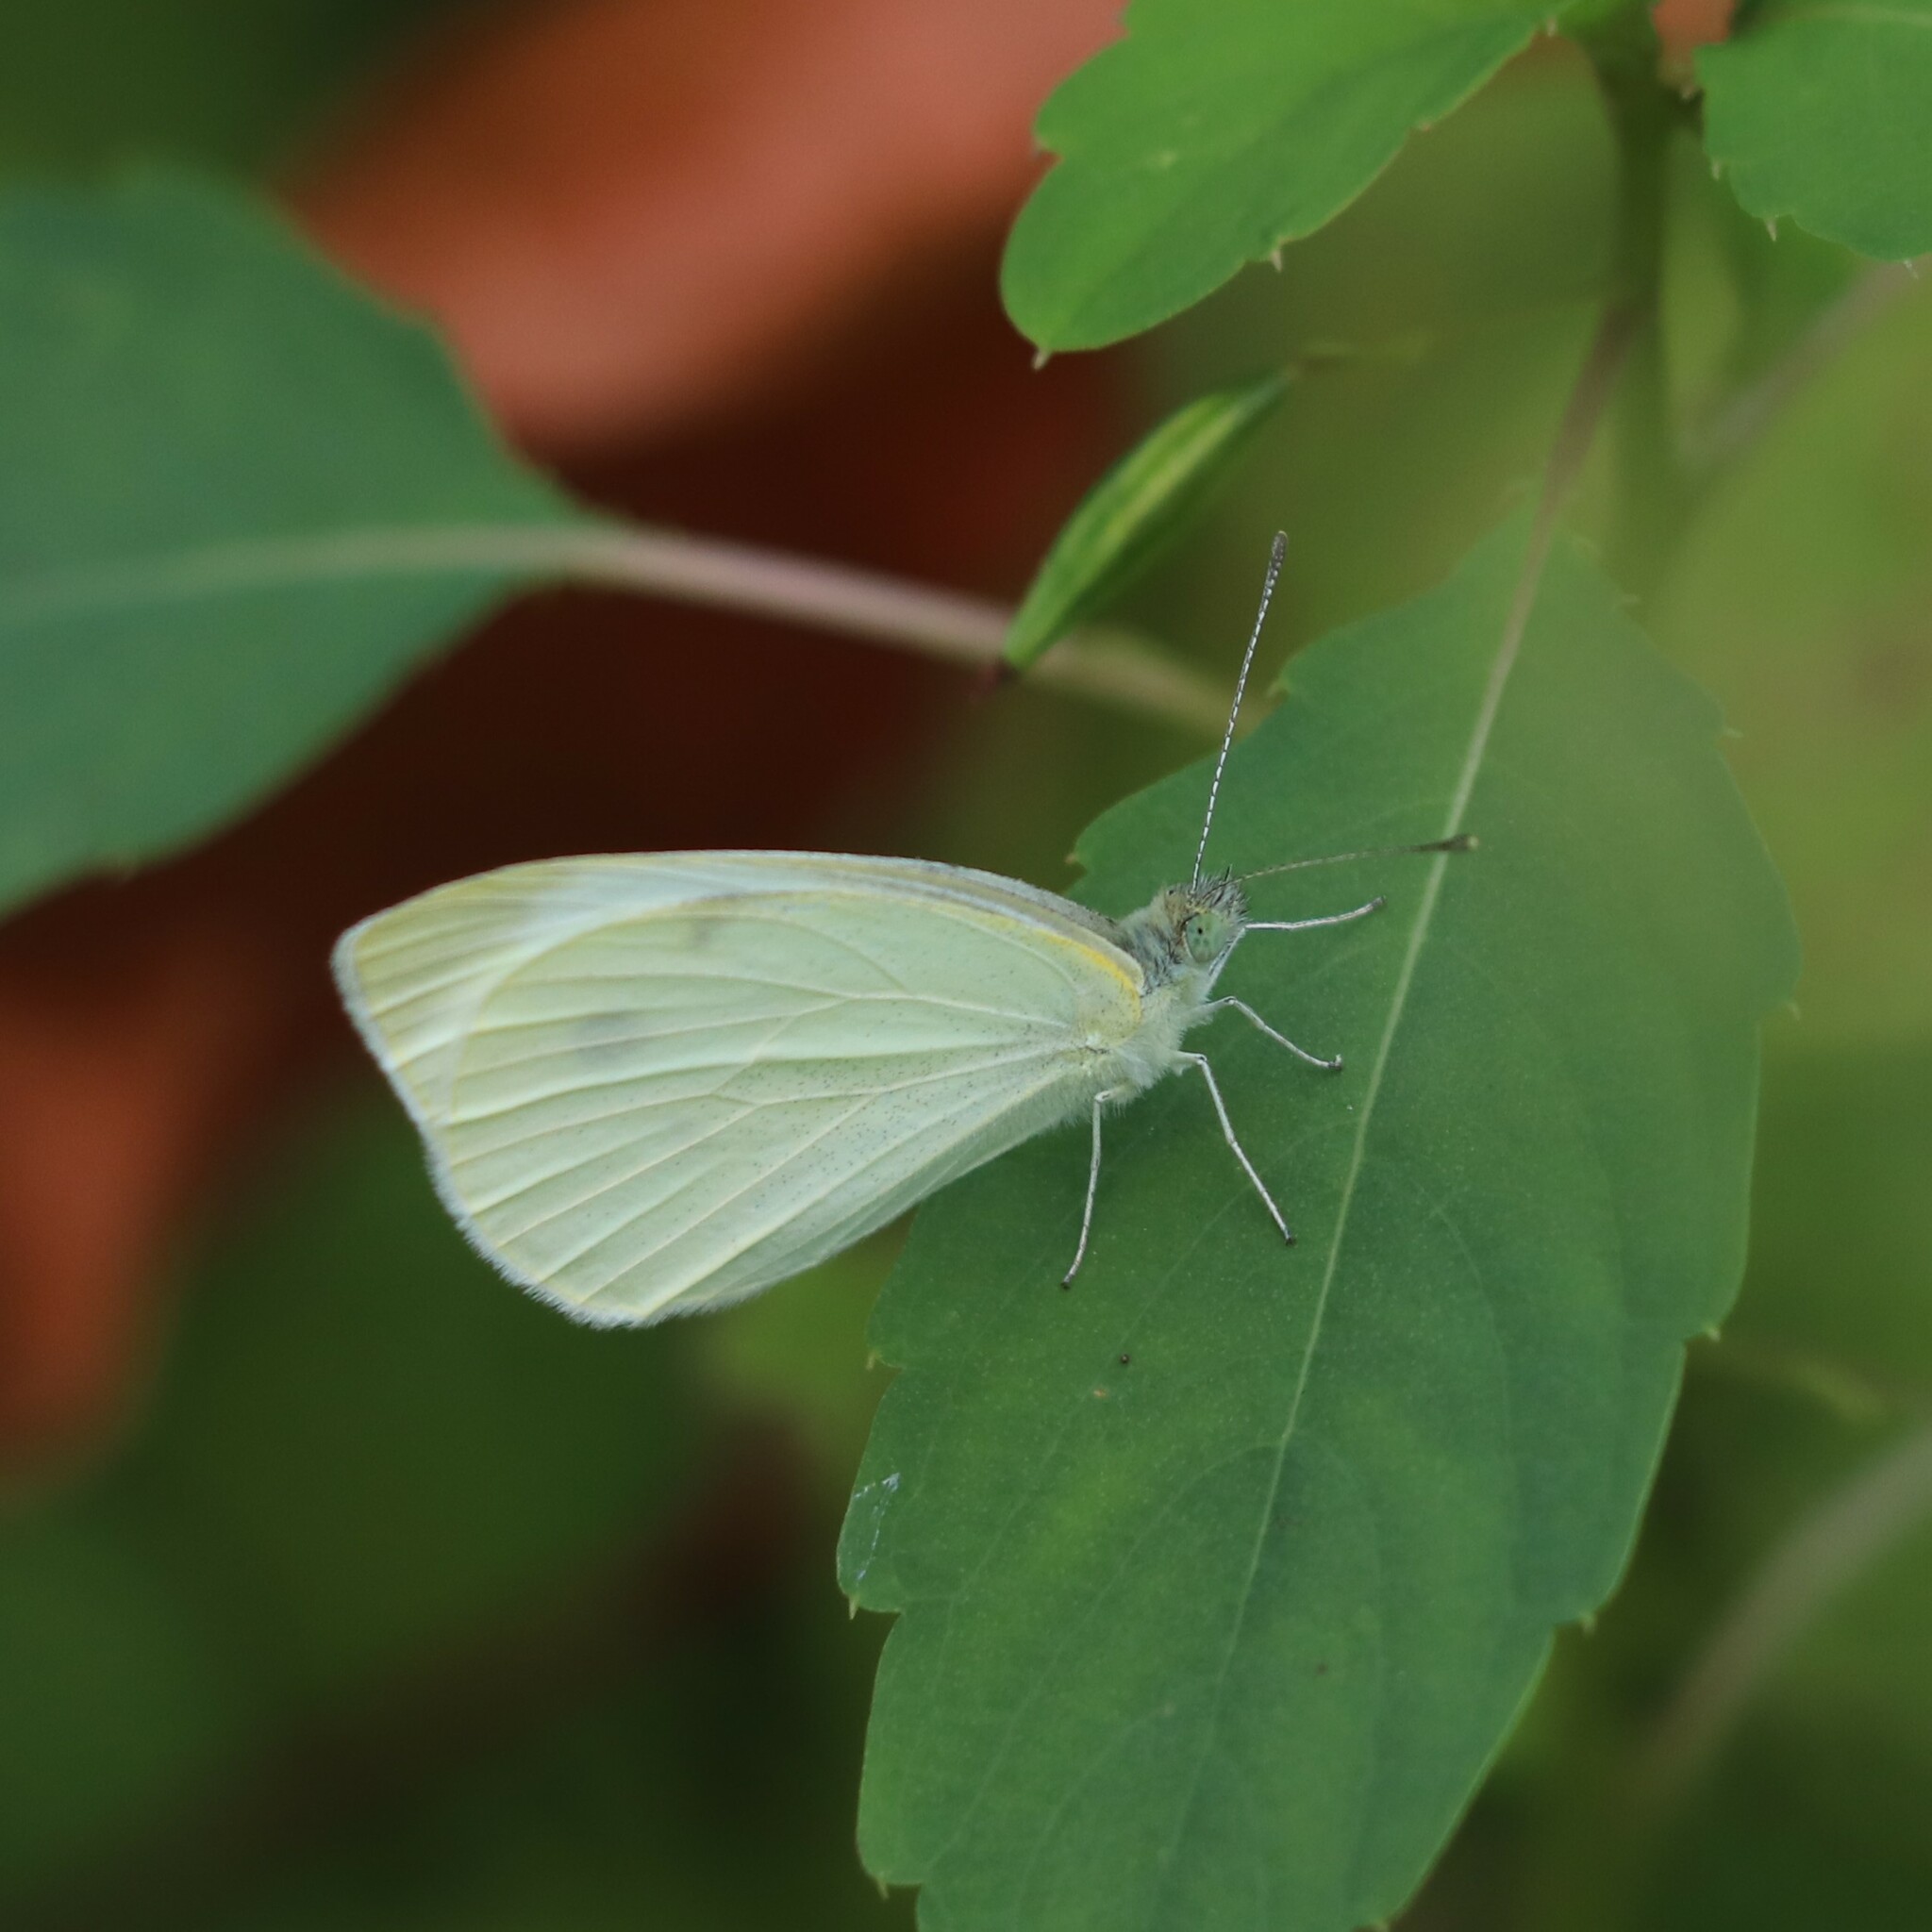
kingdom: Animalia
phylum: Arthropoda
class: Insecta
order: Lepidoptera
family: Pieridae
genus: Pieris
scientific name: Pieris rapae
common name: Small white
